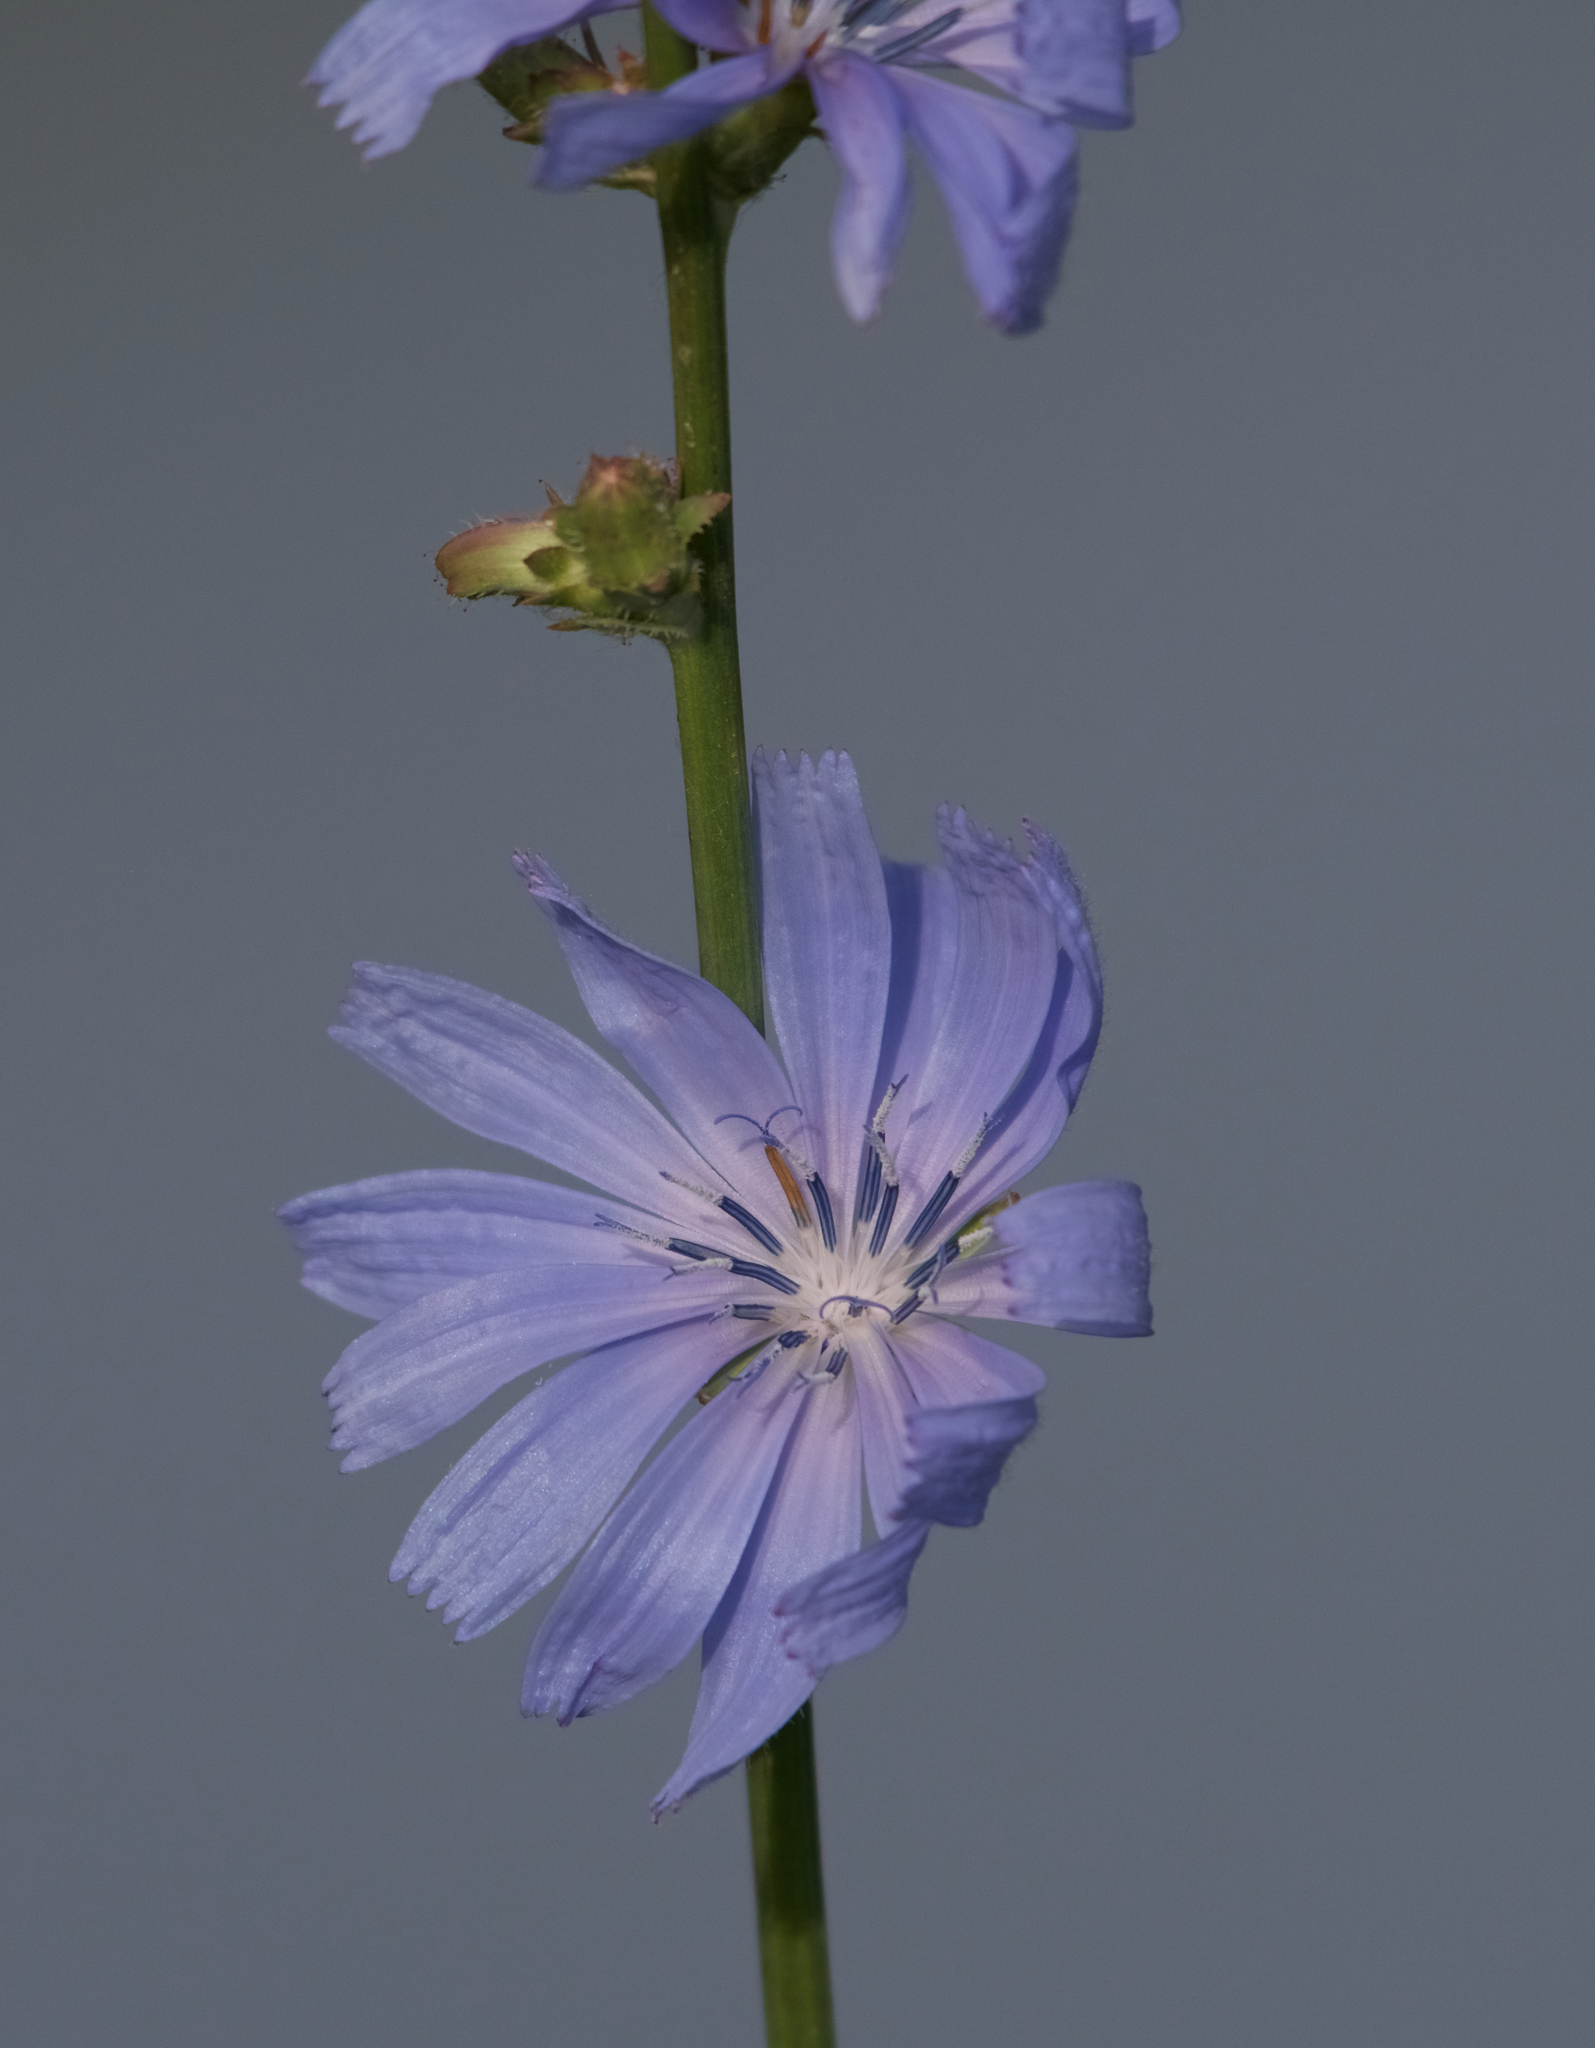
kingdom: Plantae
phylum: Tracheophyta
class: Magnoliopsida
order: Asterales
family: Asteraceae
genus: Cichorium
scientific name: Cichorium intybus
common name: Chicory
